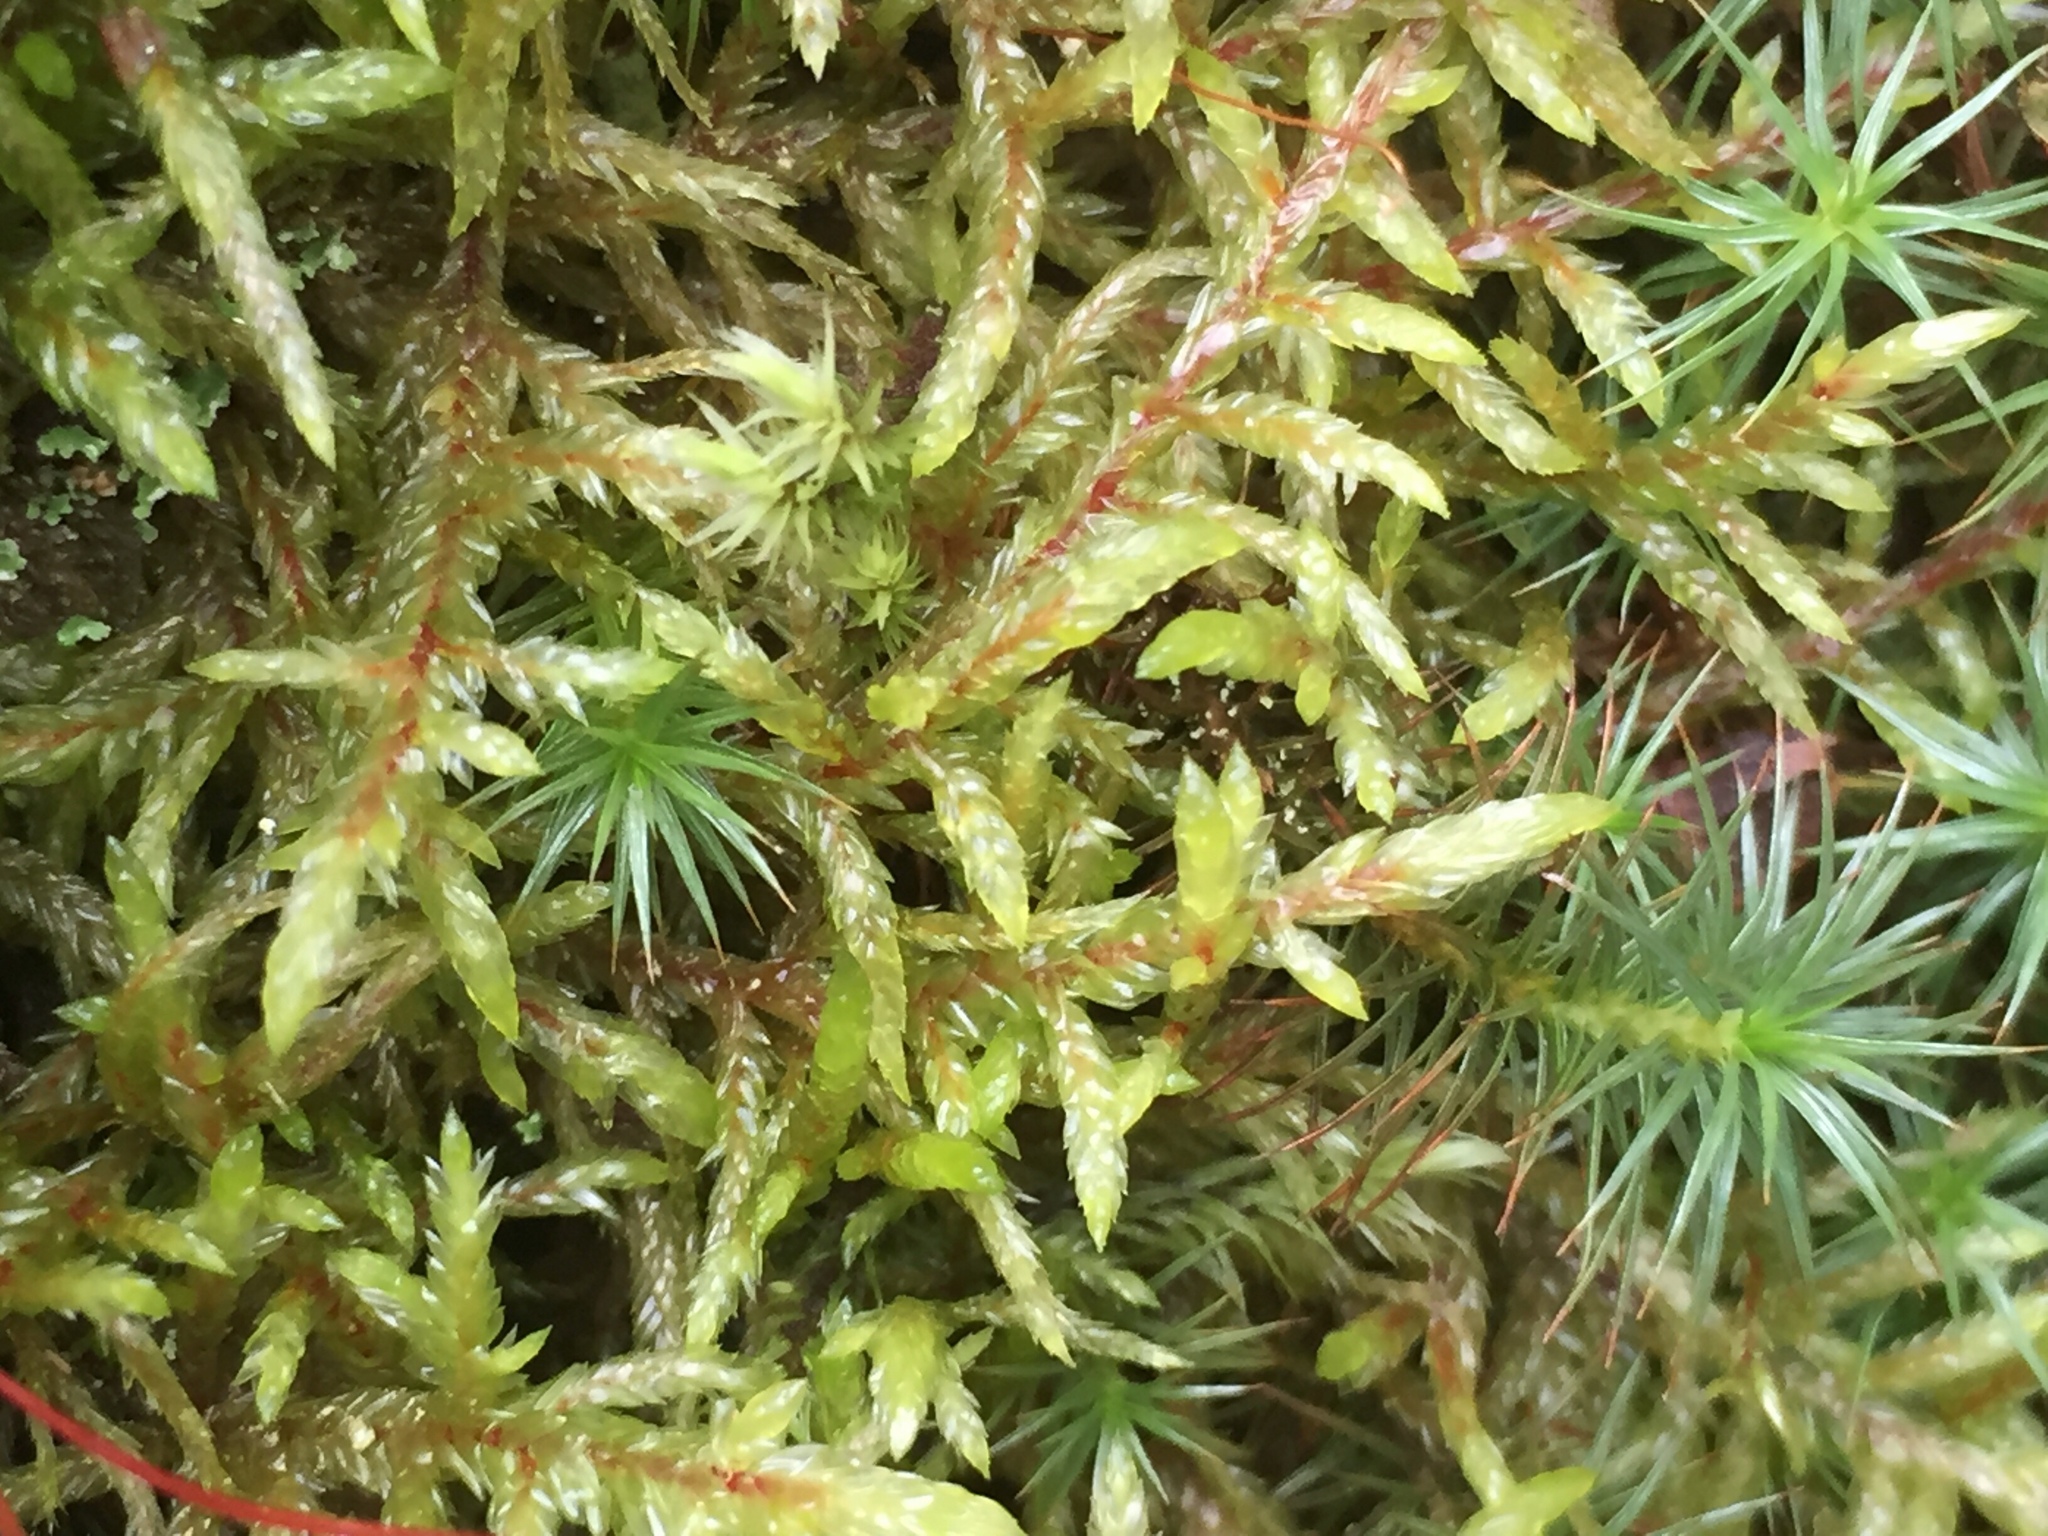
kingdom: Plantae
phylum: Bryophyta
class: Bryopsida
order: Hypnales
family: Hylocomiaceae
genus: Pleurozium
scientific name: Pleurozium schreberi
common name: Red-stemmed feather moss
